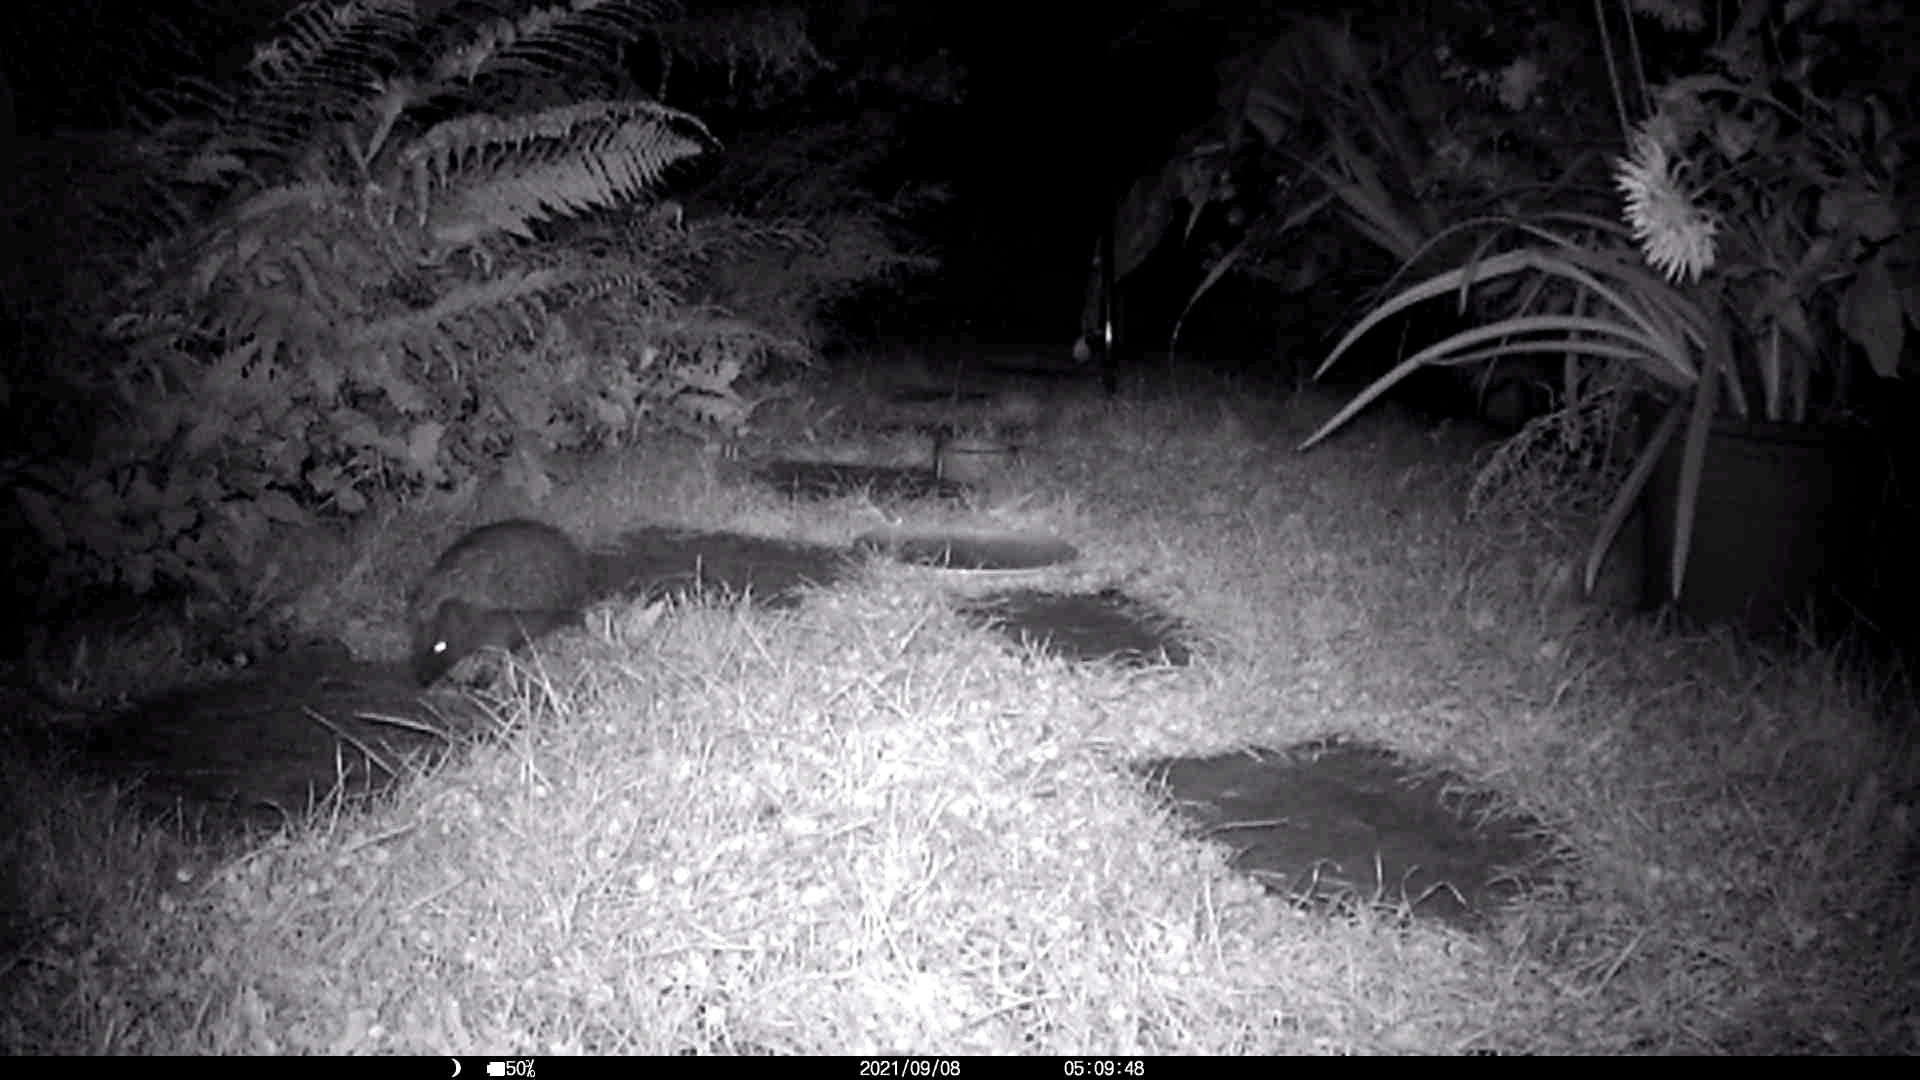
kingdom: Animalia
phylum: Chordata
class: Mammalia
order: Erinaceomorpha
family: Erinaceidae
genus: Erinaceus
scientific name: Erinaceus europaeus
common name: West european hedgehog
